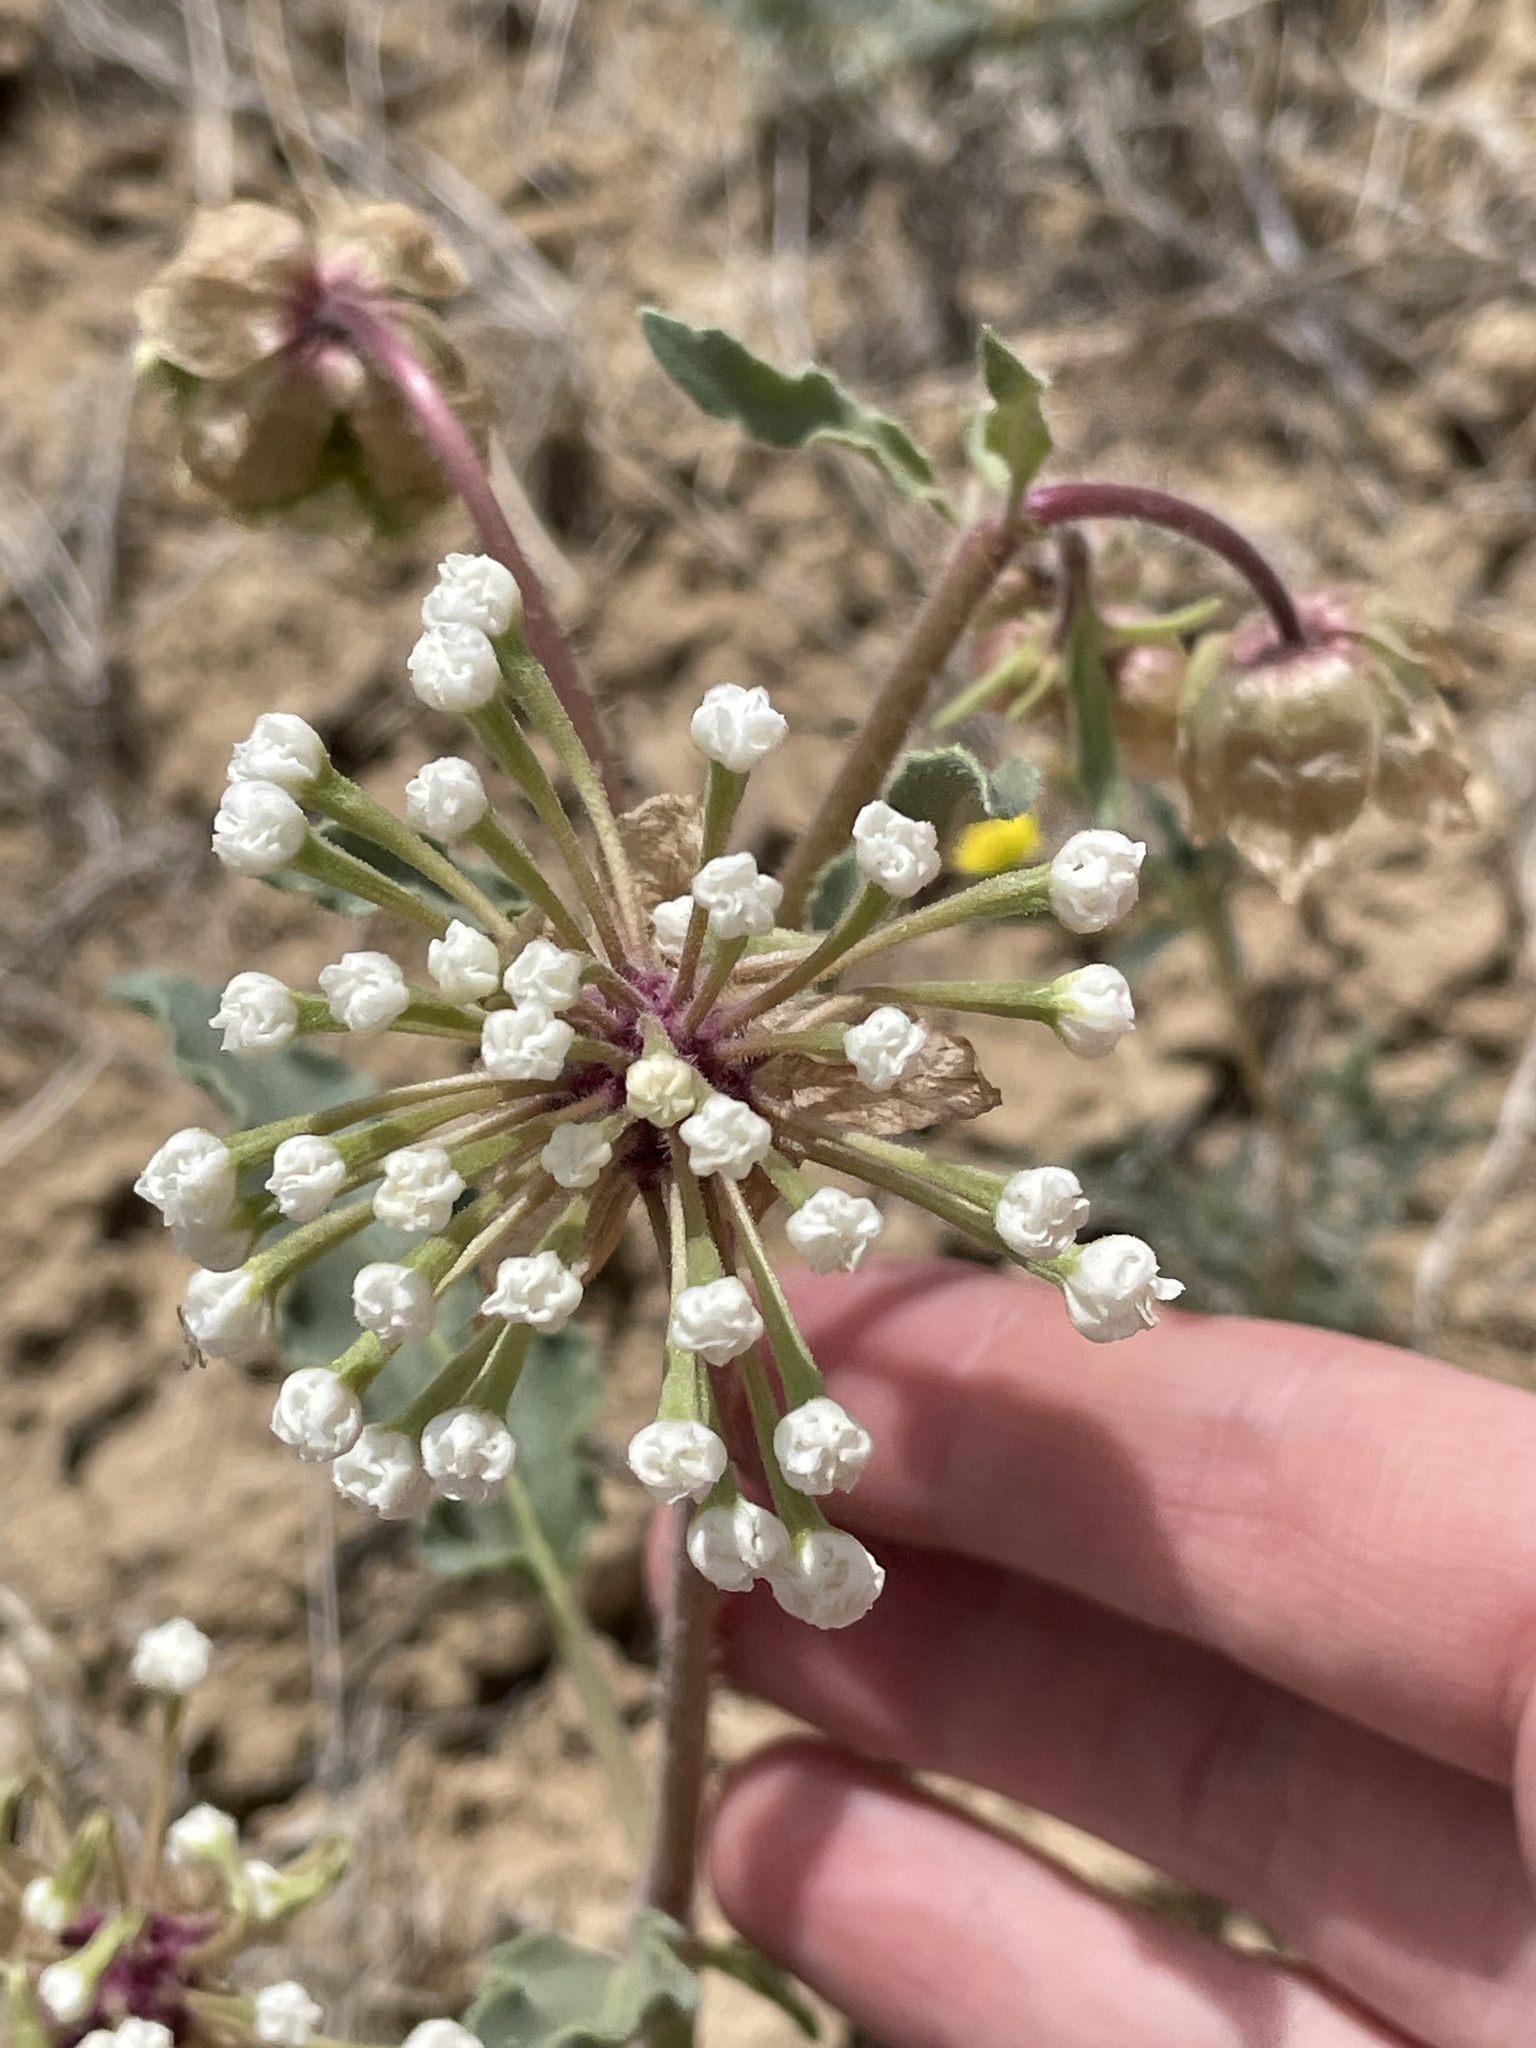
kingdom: Plantae
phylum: Tracheophyta
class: Magnoliopsida
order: Caryophyllales
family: Nyctaginaceae
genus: Abronia
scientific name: Abronia fragrans
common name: Fragrant sand-verbena
